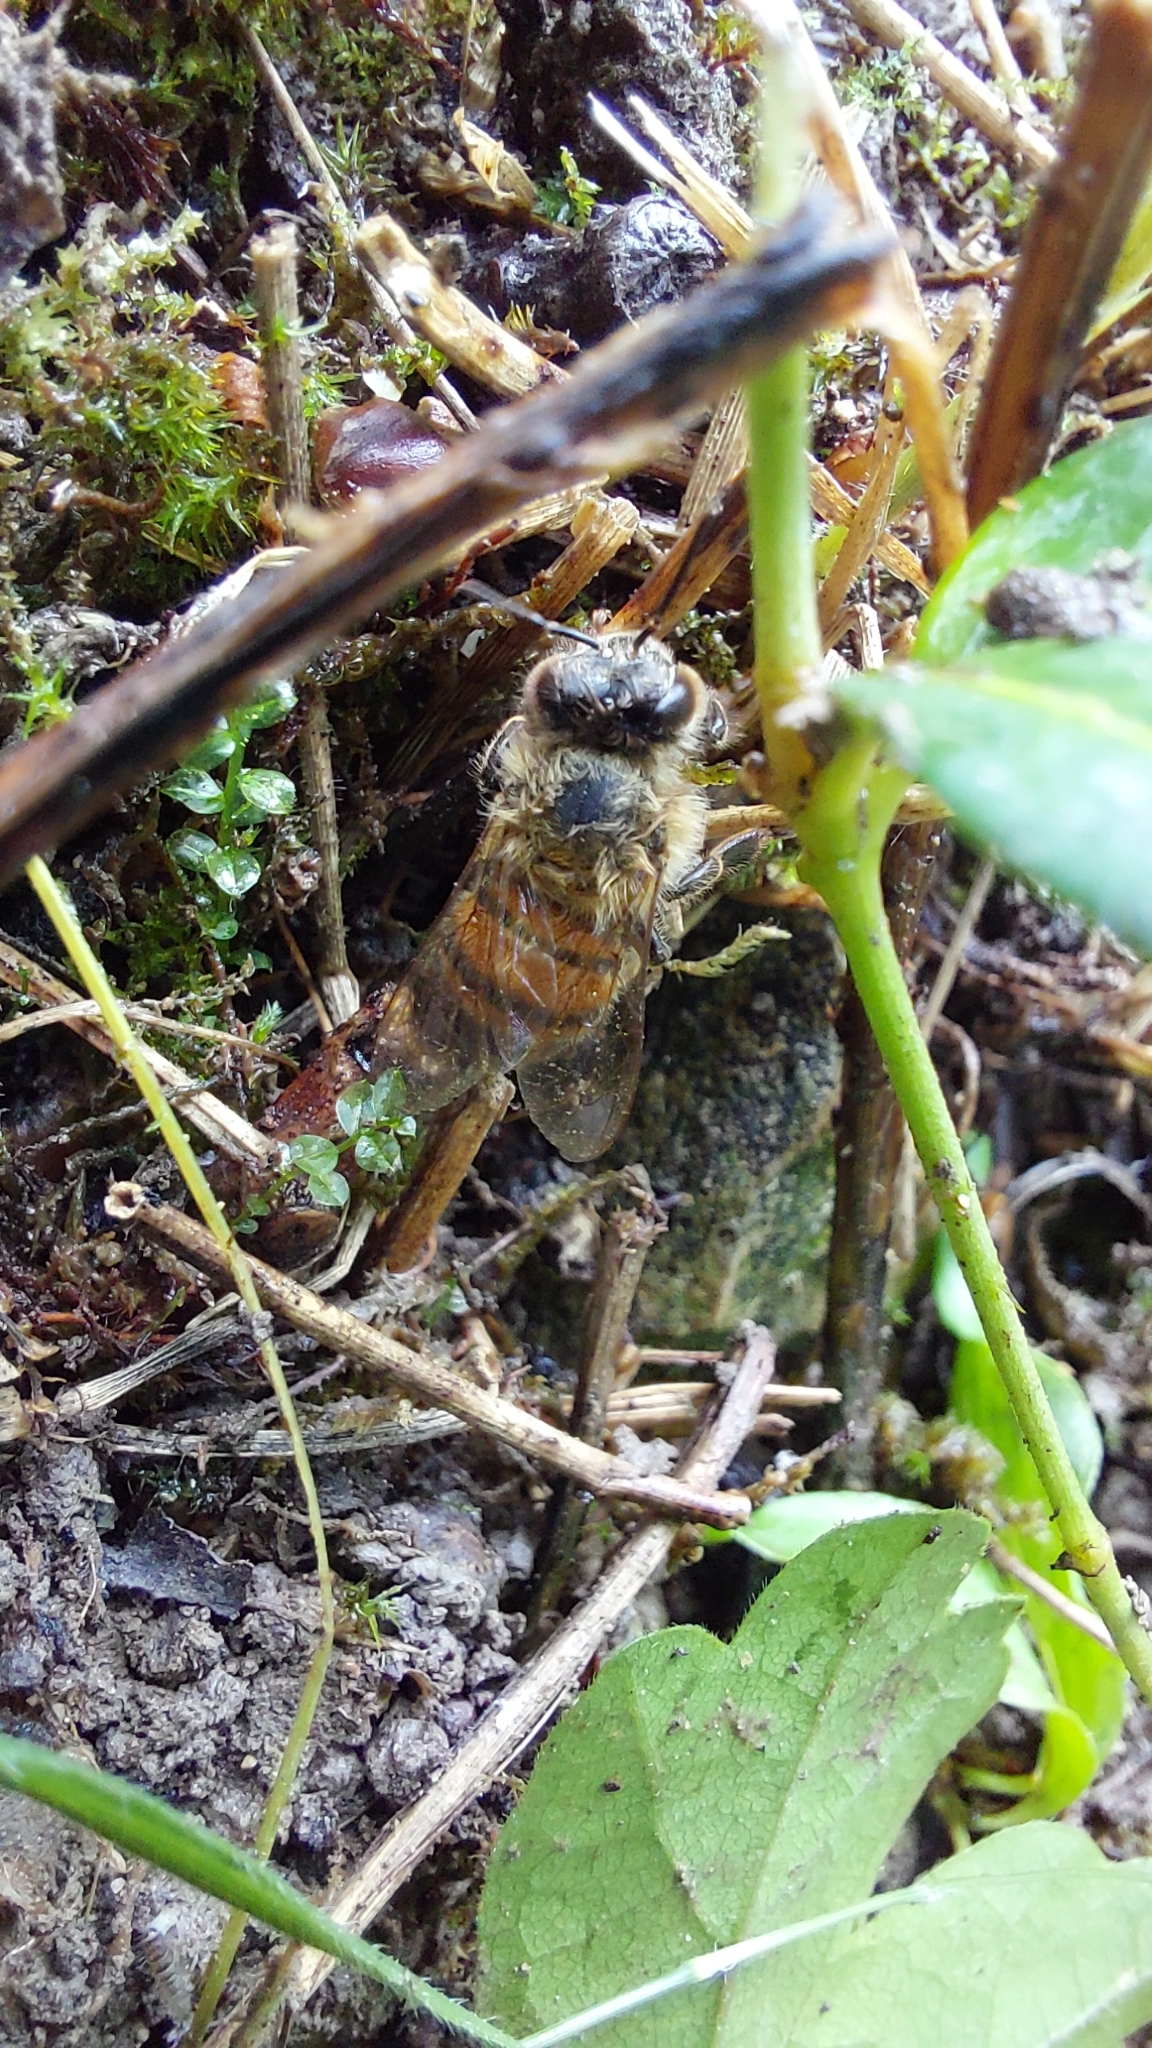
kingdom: Animalia
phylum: Arthropoda
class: Insecta
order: Hymenoptera
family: Apidae
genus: Apis
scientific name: Apis mellifera
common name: Honey bee
